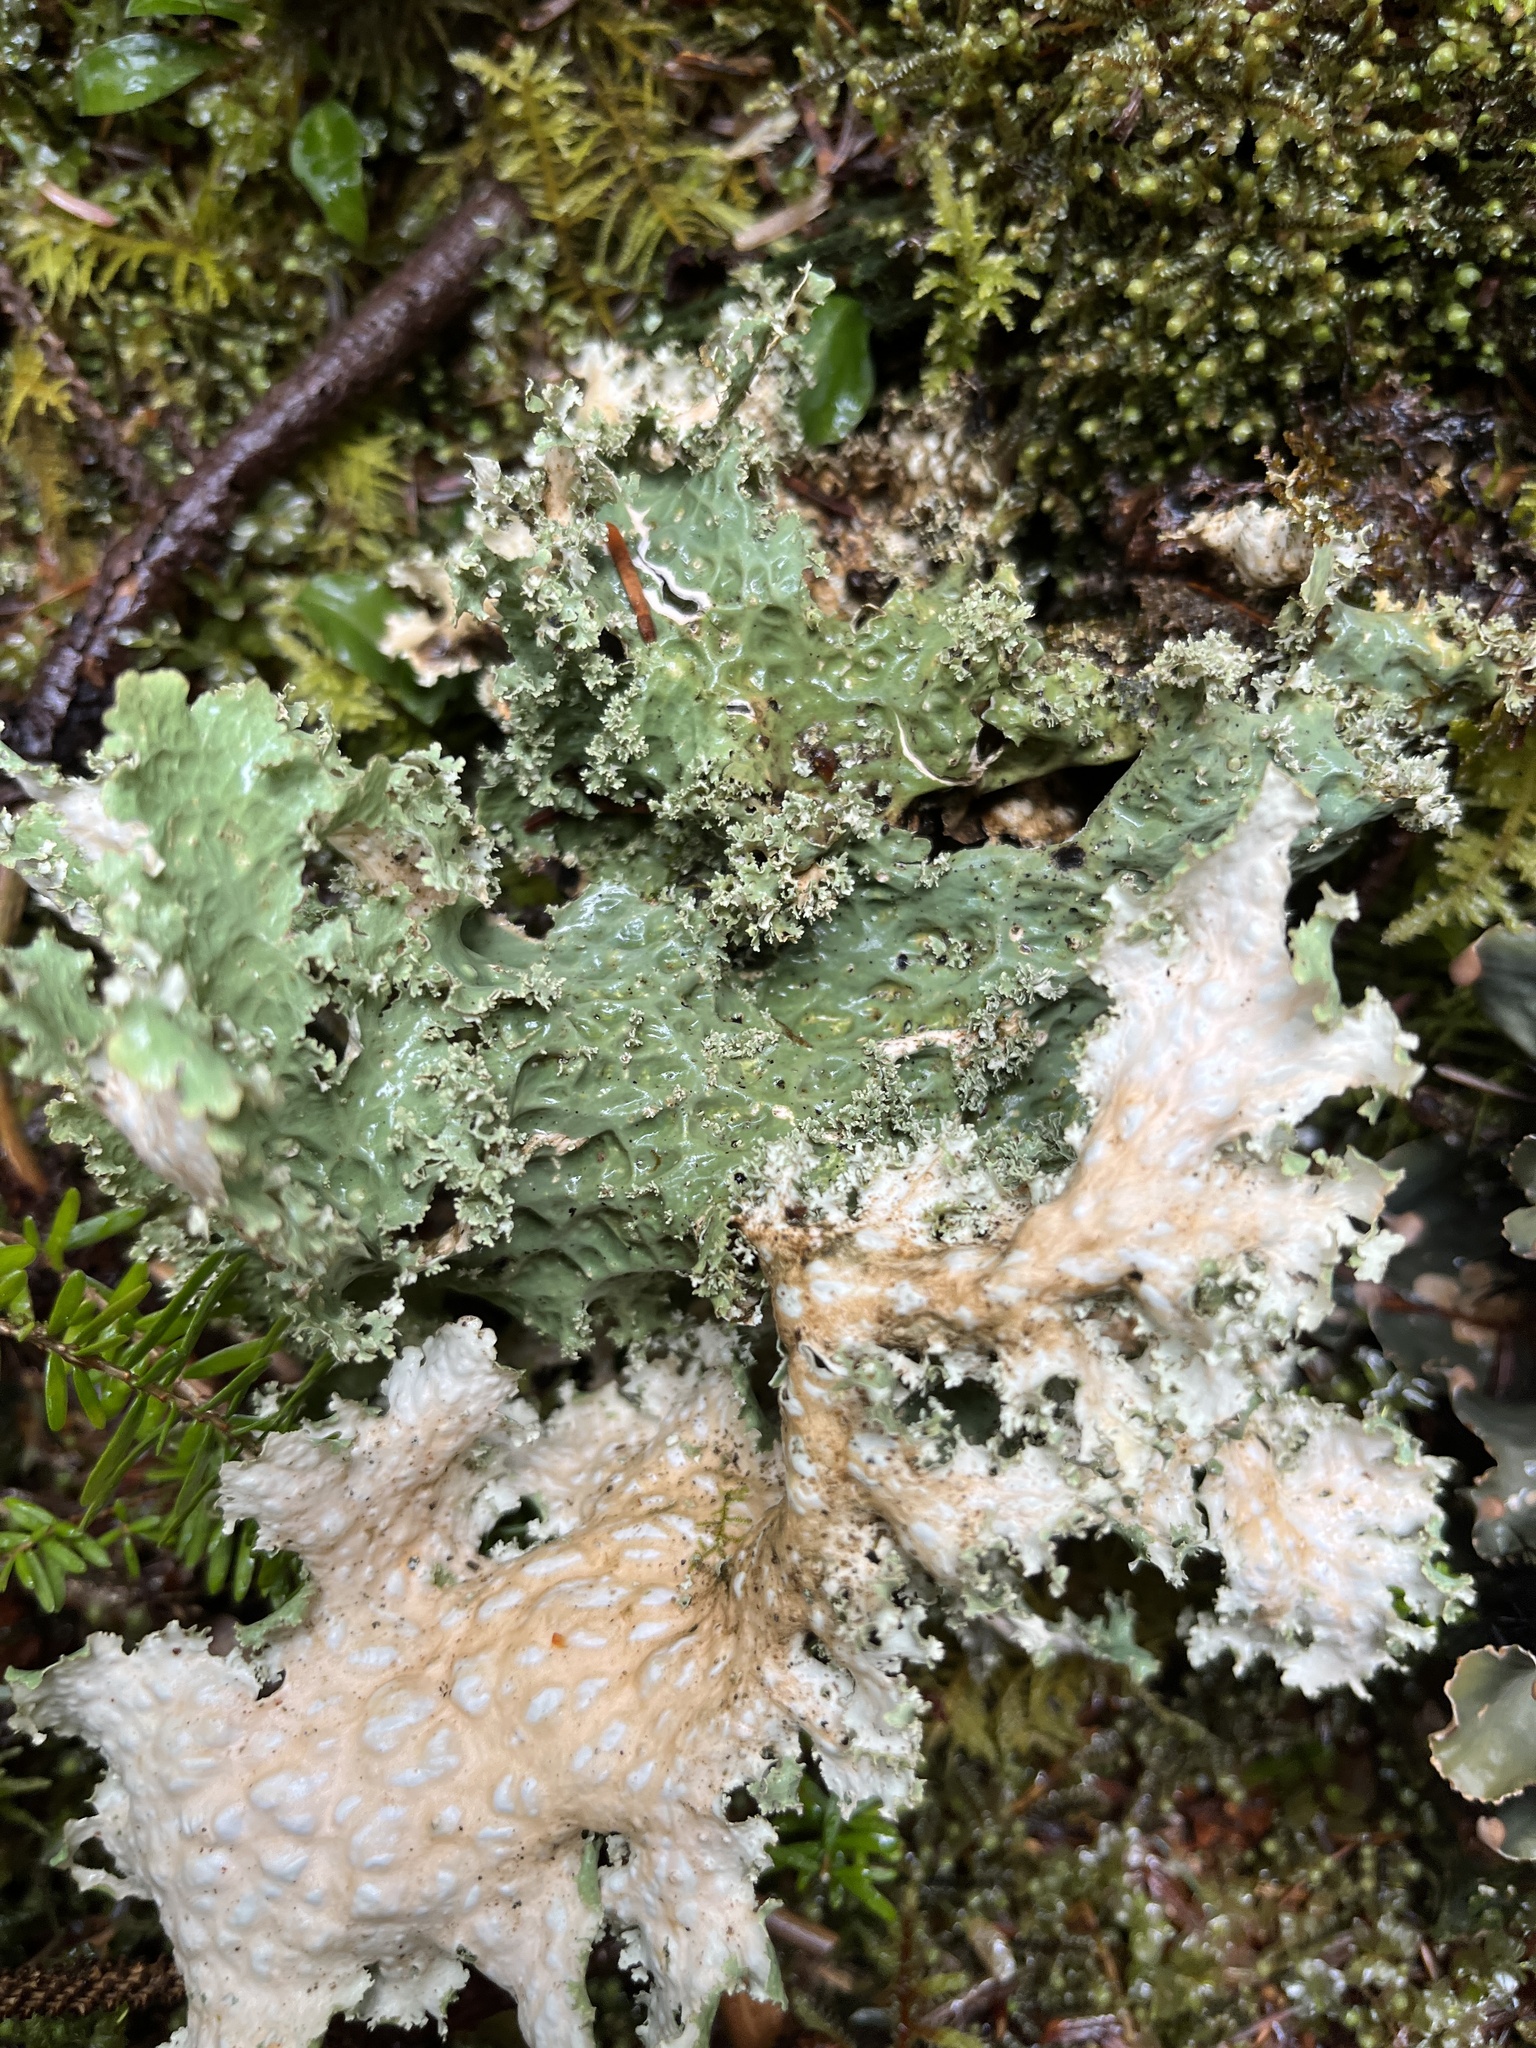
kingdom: Fungi
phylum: Ascomycota
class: Lecanoromycetes
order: Peltigerales
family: Lobariaceae
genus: Lobaria
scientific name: Lobaria oregana
